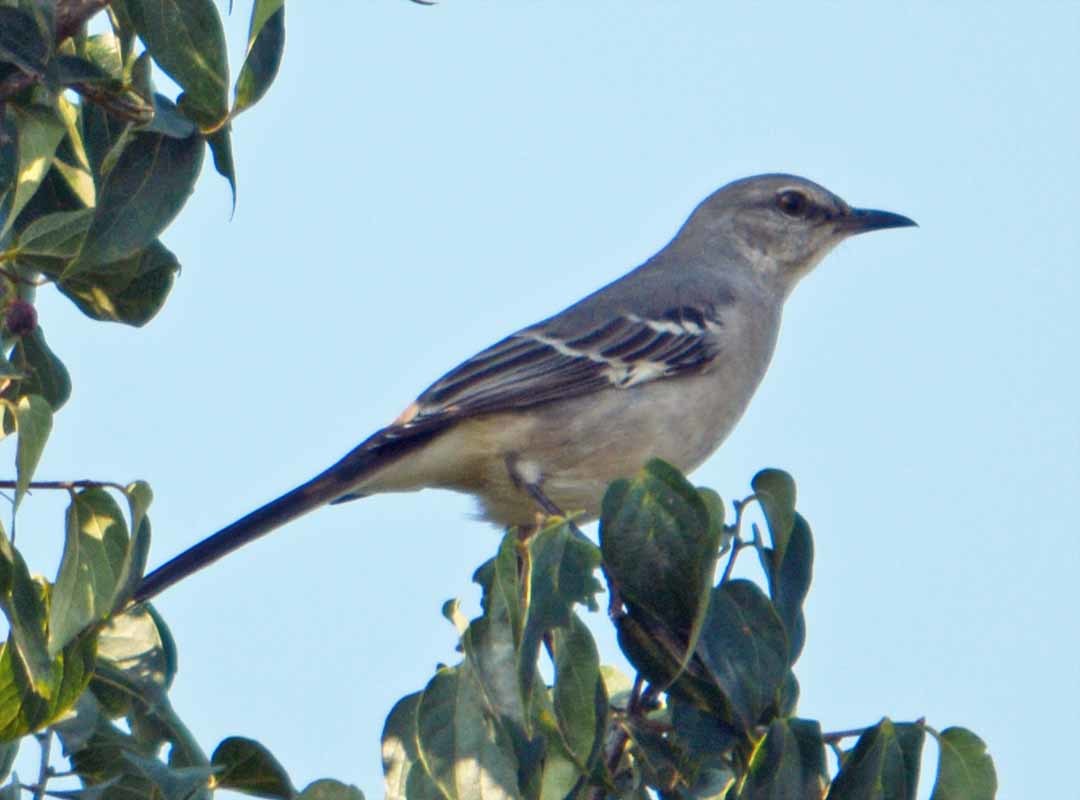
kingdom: Animalia
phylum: Chordata
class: Aves
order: Passeriformes
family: Mimidae
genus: Mimus
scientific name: Mimus polyglottos
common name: Northern mockingbird
